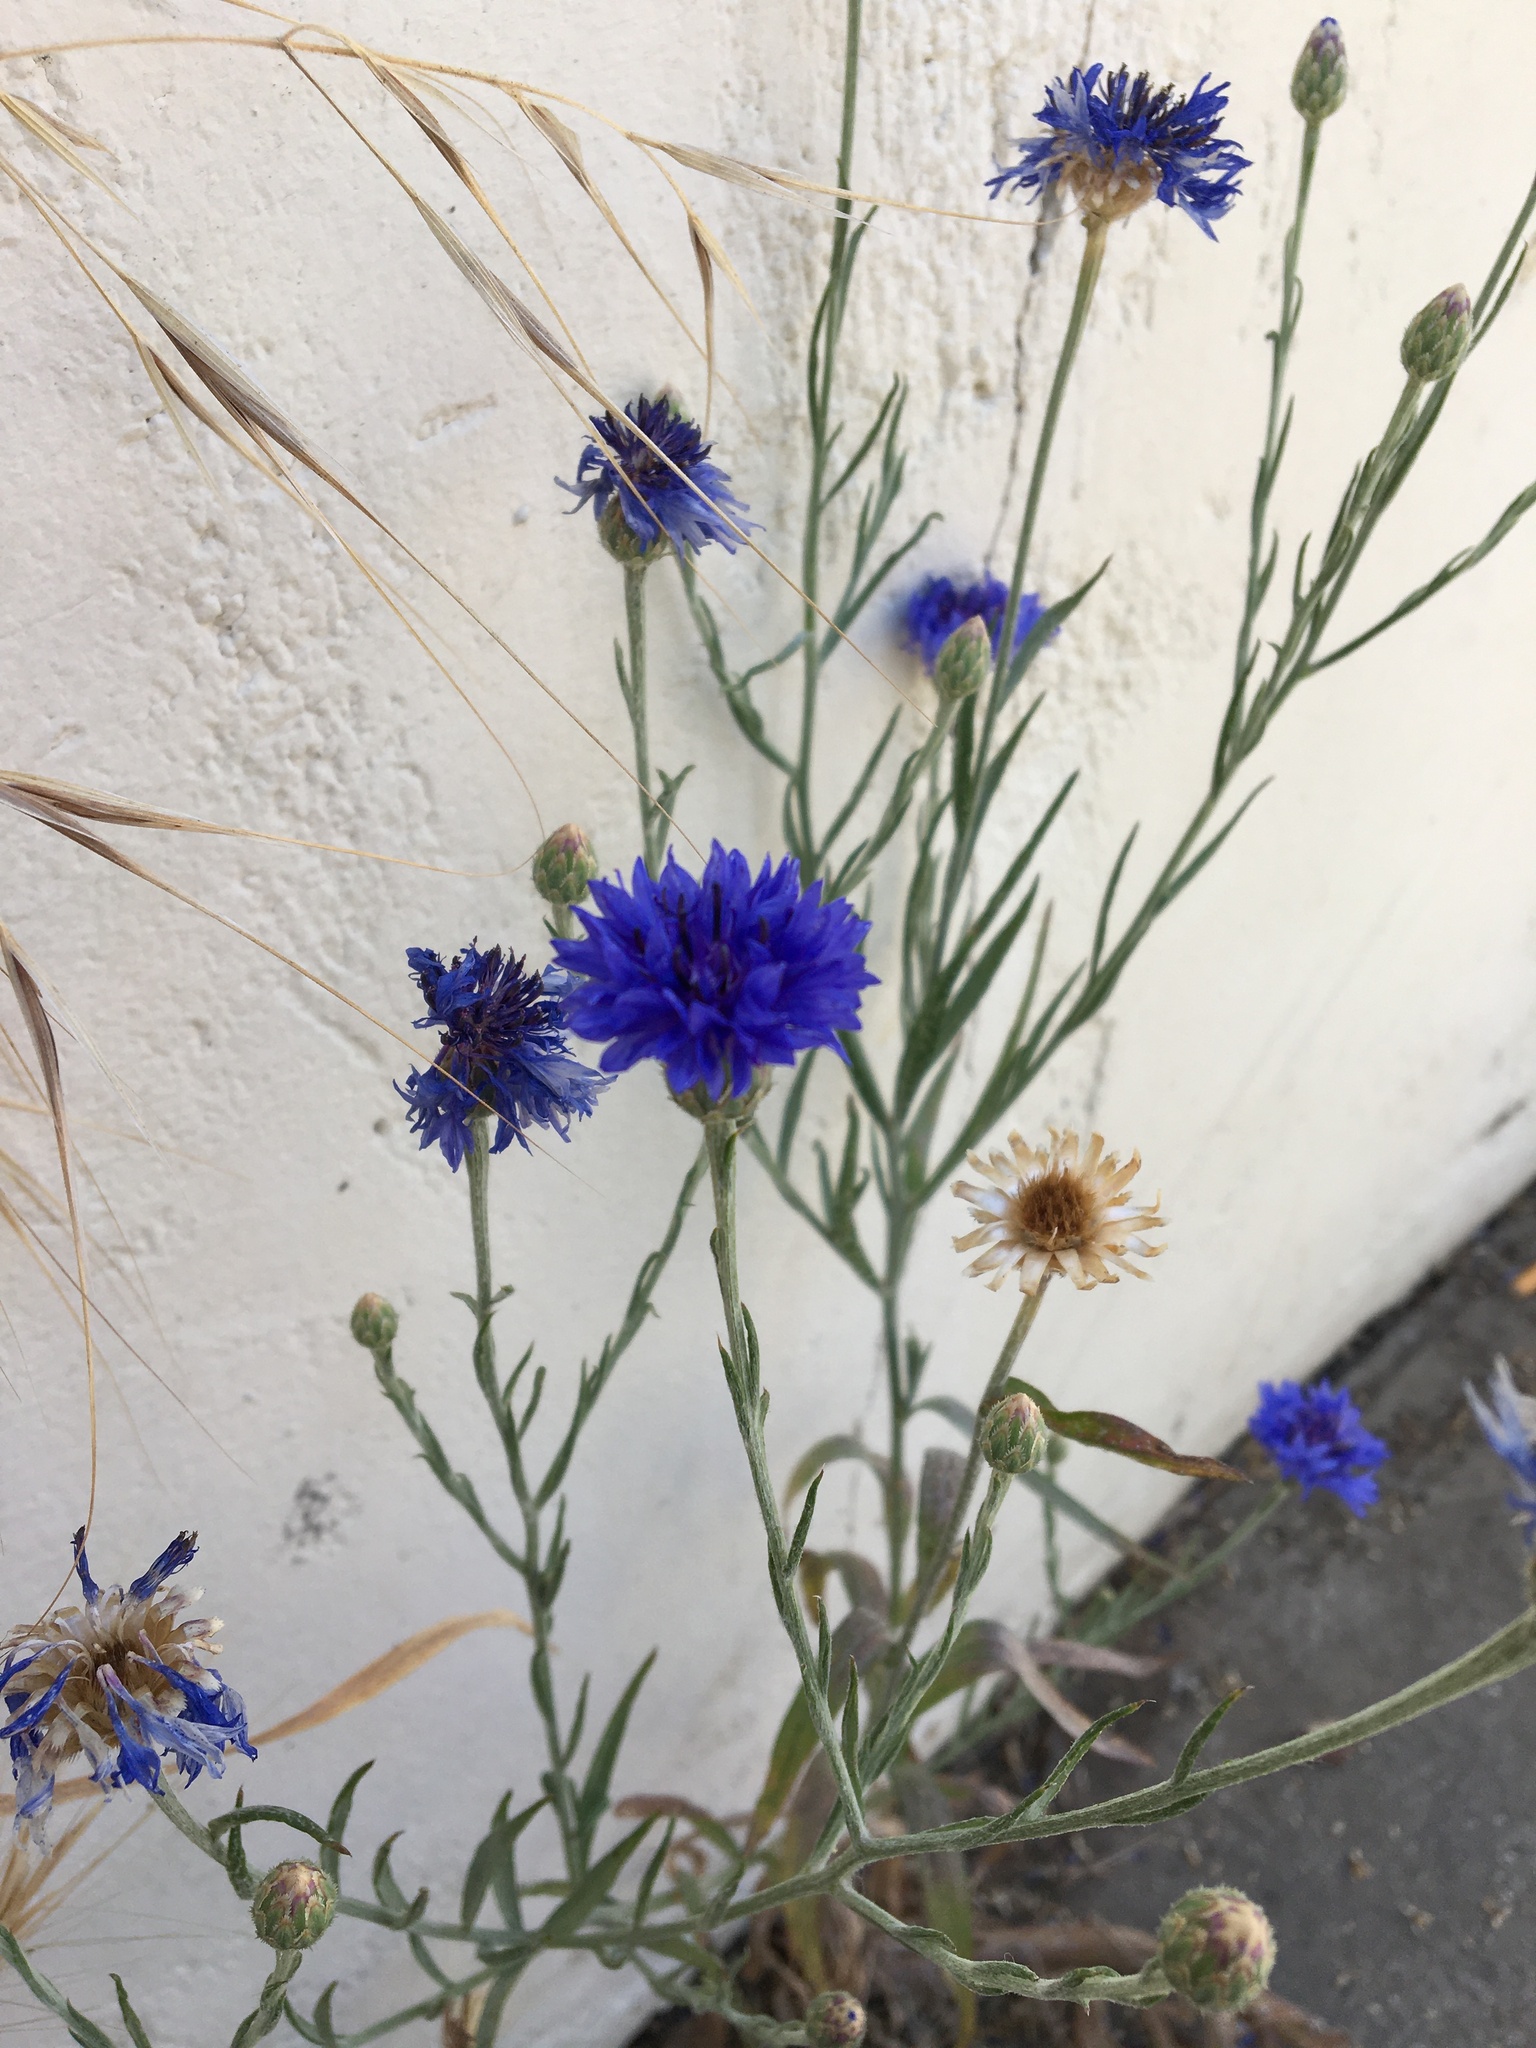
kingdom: Plantae
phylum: Tracheophyta
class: Magnoliopsida
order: Asterales
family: Asteraceae
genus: Centaurea
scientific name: Centaurea cyanus
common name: Cornflower
